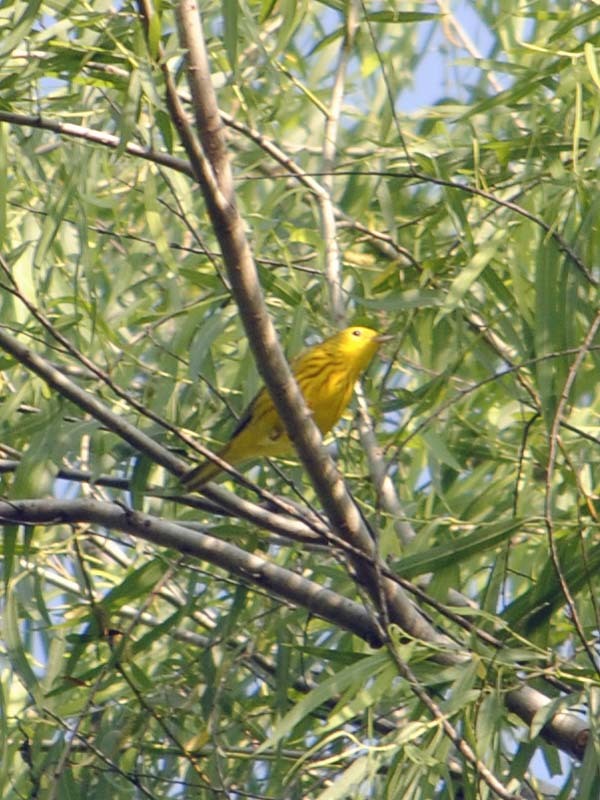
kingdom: Animalia
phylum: Chordata
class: Aves
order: Passeriformes
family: Parulidae
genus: Setophaga
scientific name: Setophaga petechia
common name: Yellow warbler
